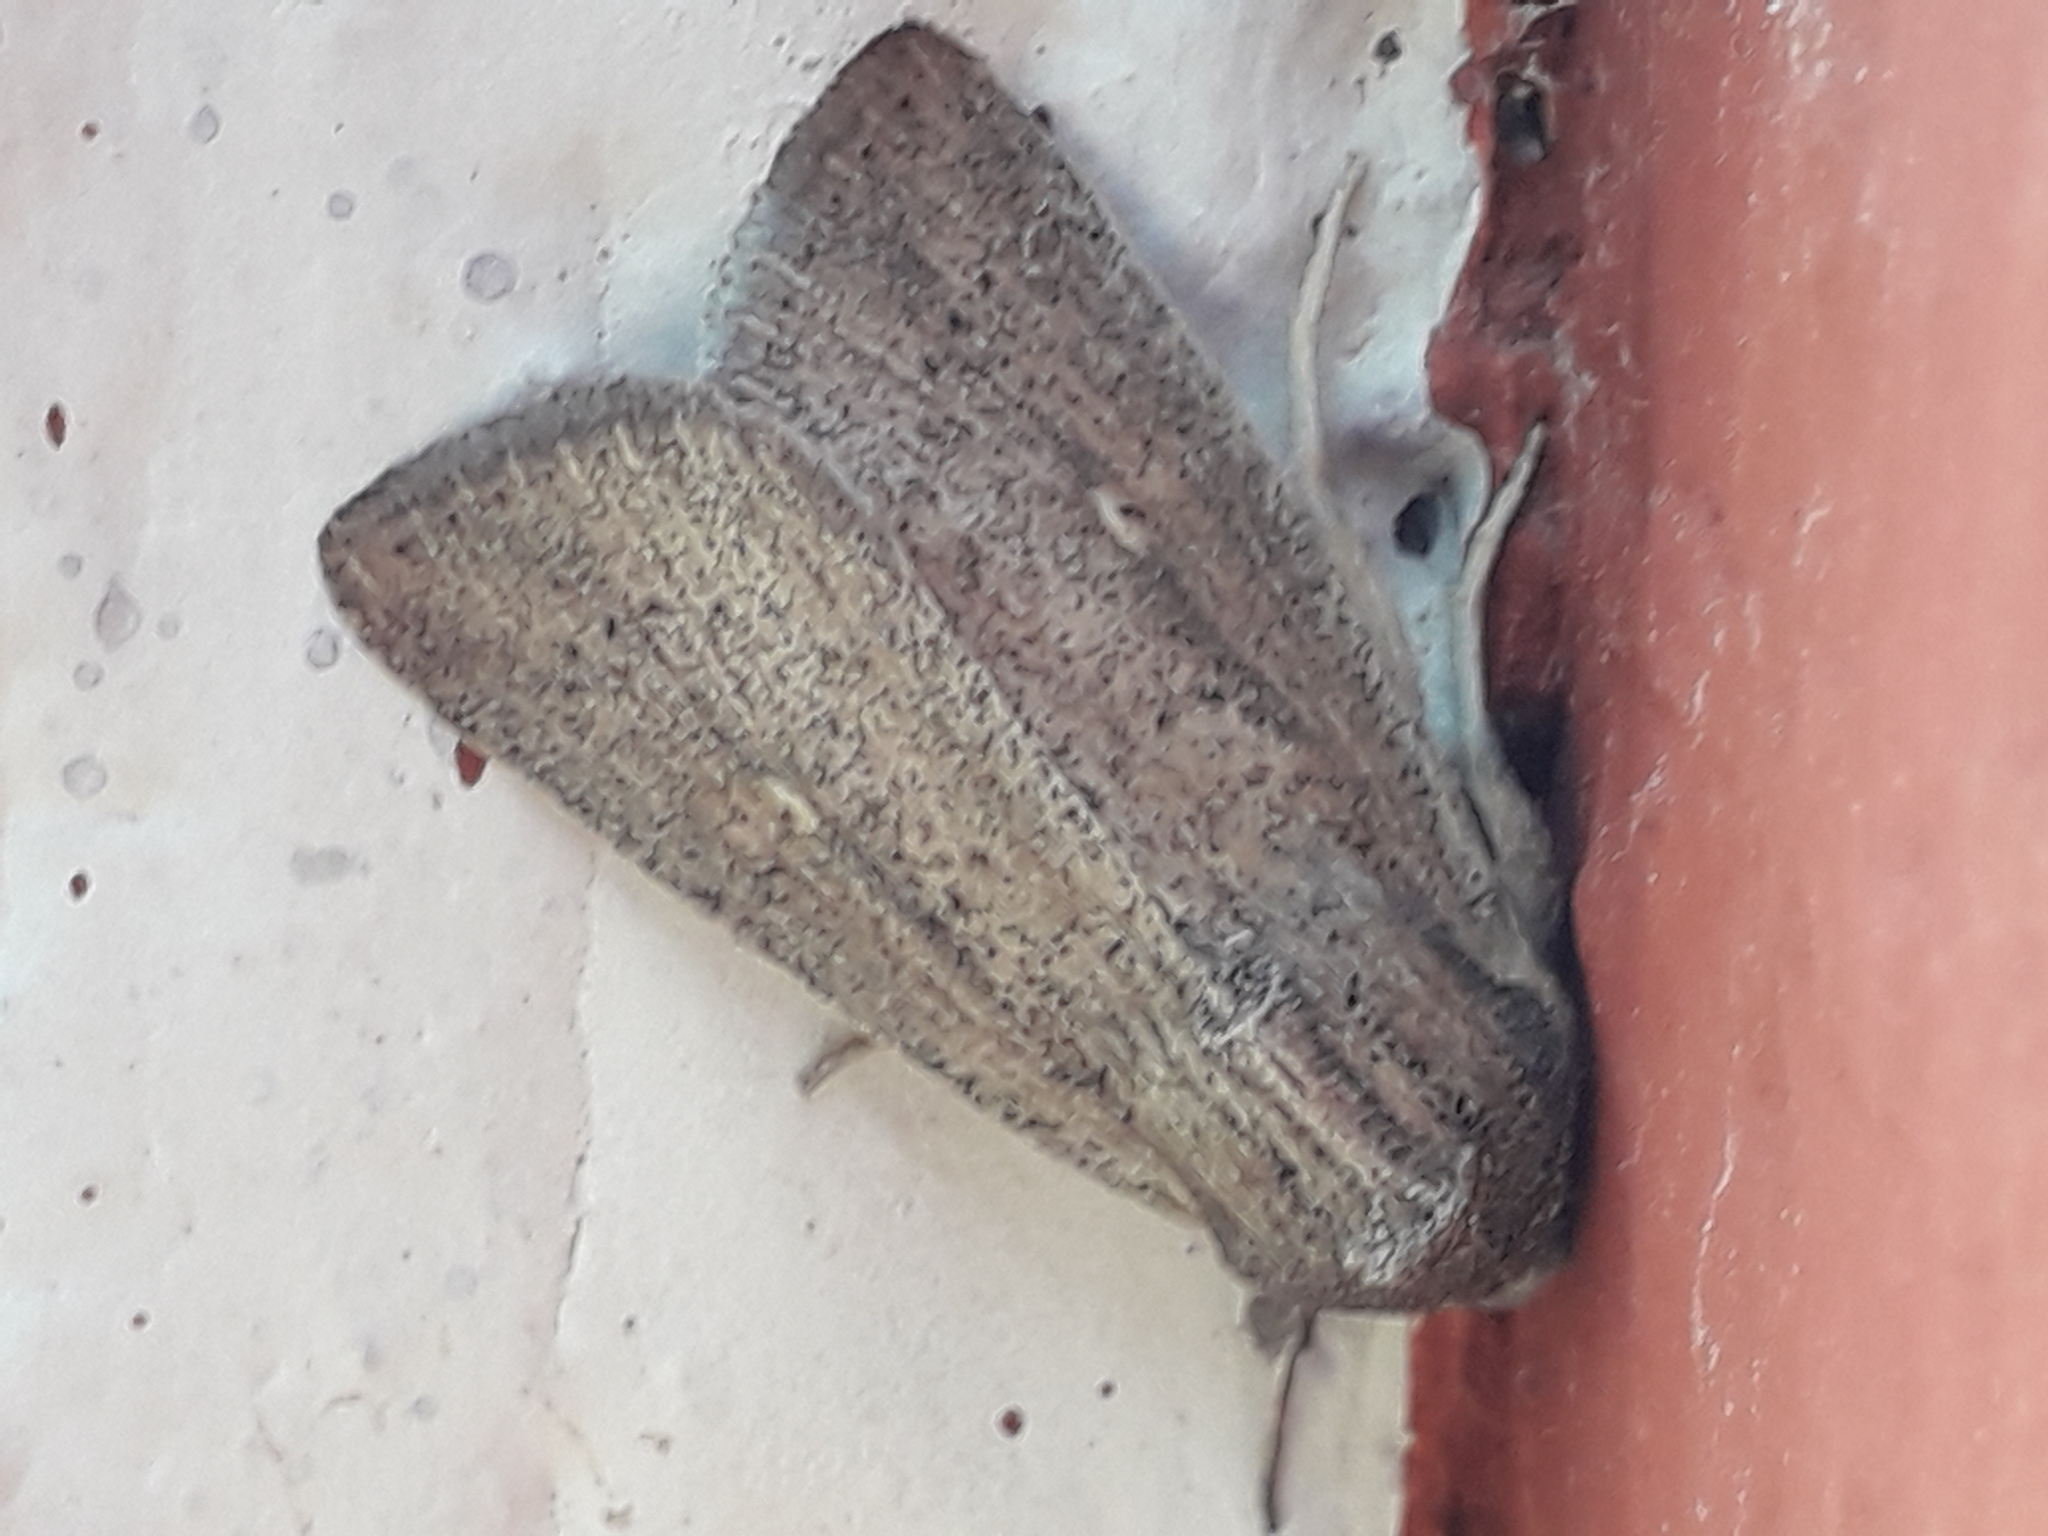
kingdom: Animalia
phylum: Arthropoda
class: Insecta
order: Lepidoptera
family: Noctuidae
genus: Mythimna
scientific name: Mythimna unipuncta
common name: White-speck
